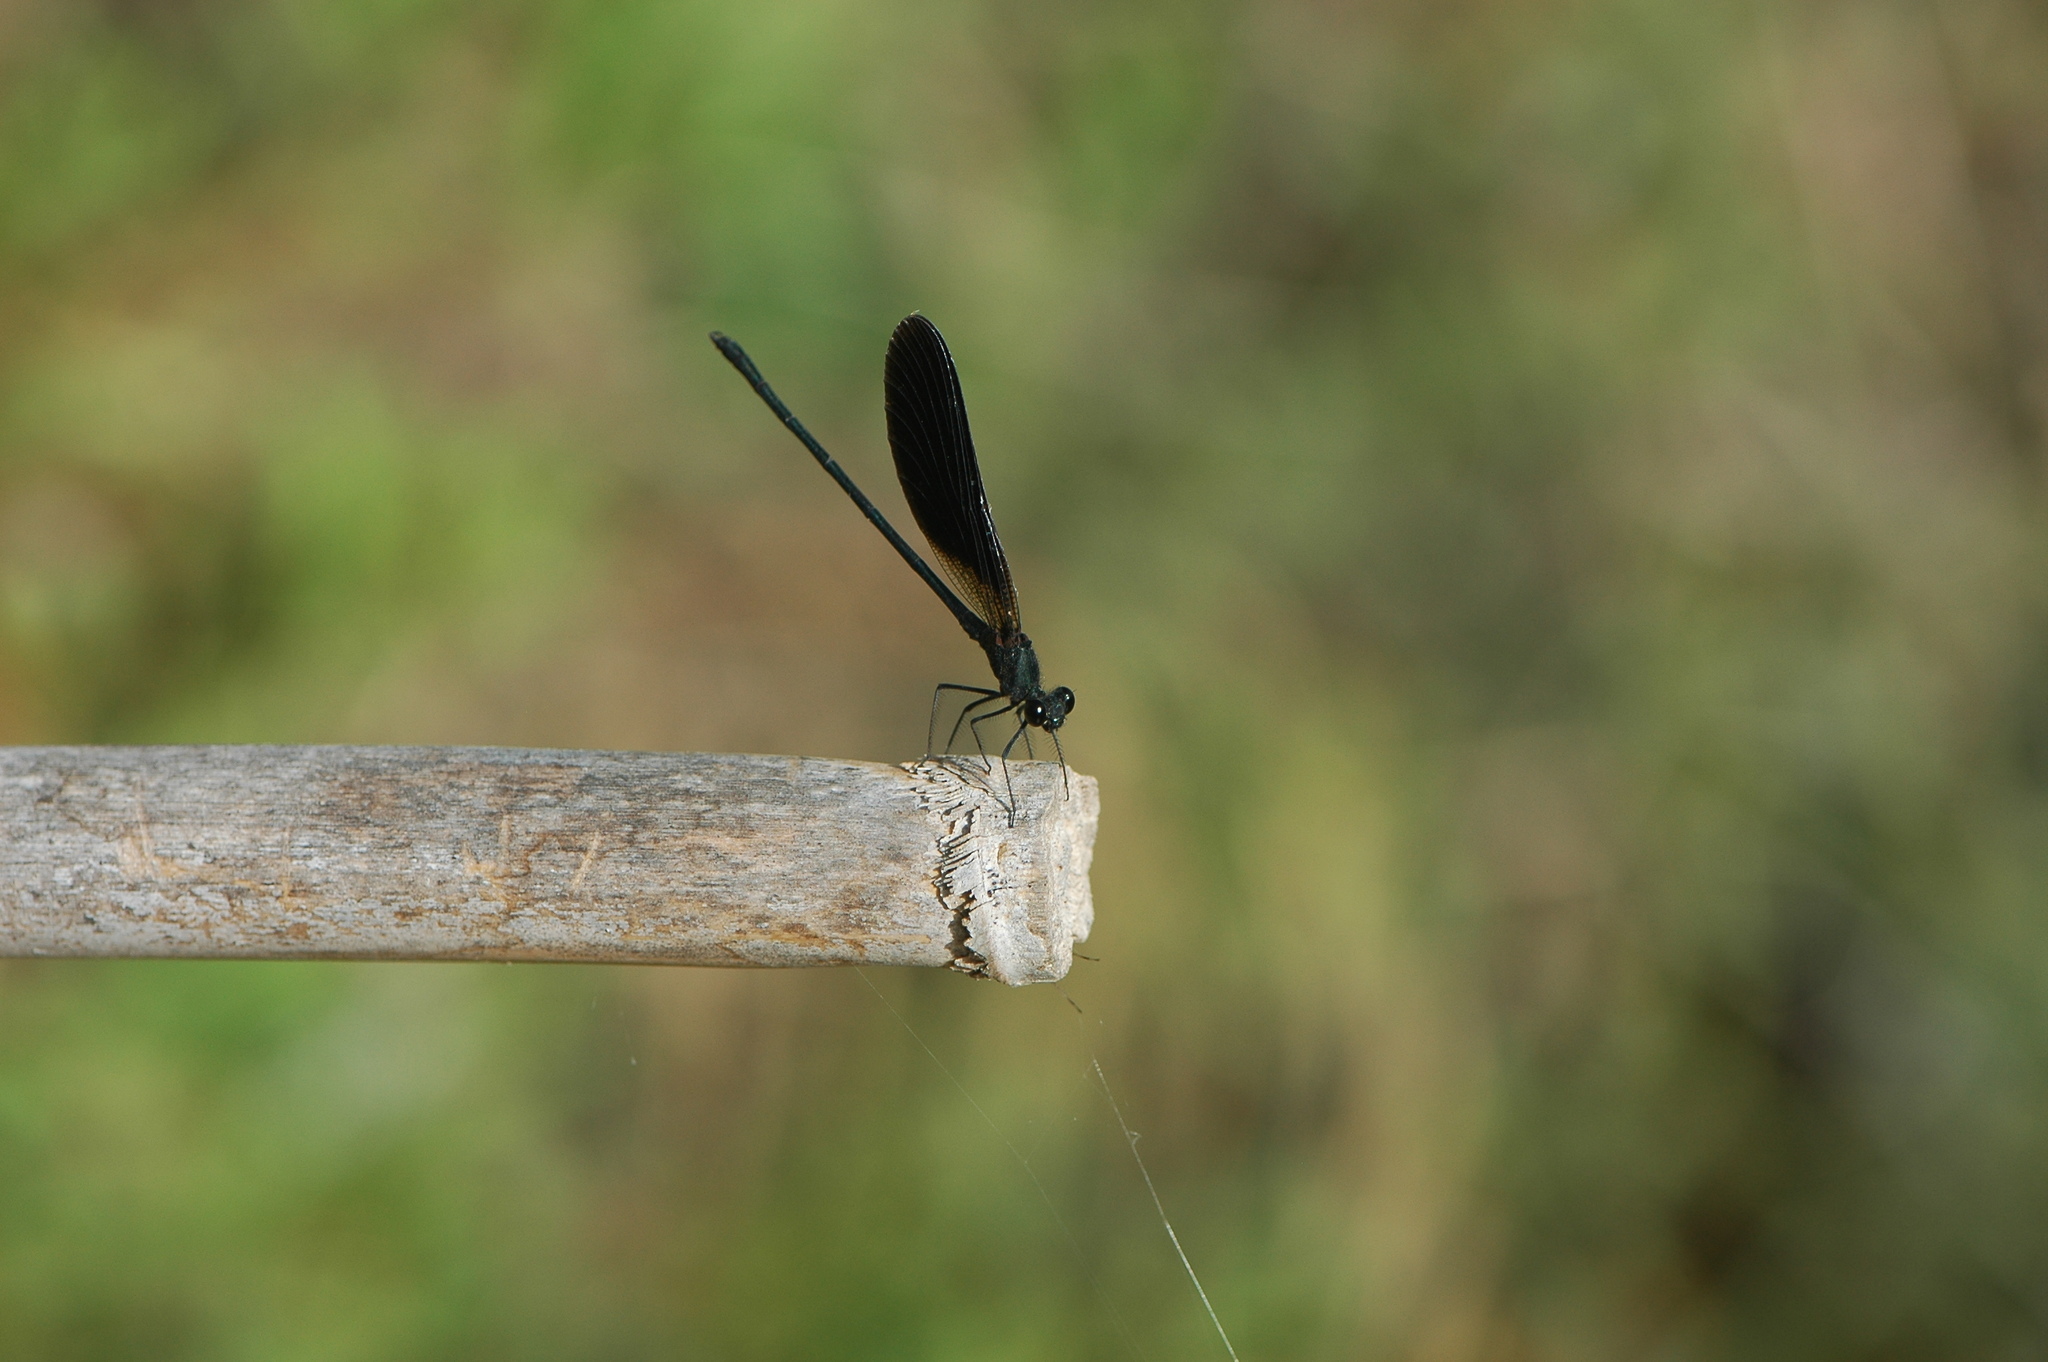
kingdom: Animalia
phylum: Arthropoda
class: Insecta
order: Odonata
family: Calopterygidae
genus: Calopteryx
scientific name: Calopteryx haemorrhoidalis
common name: Copper demoiselle
